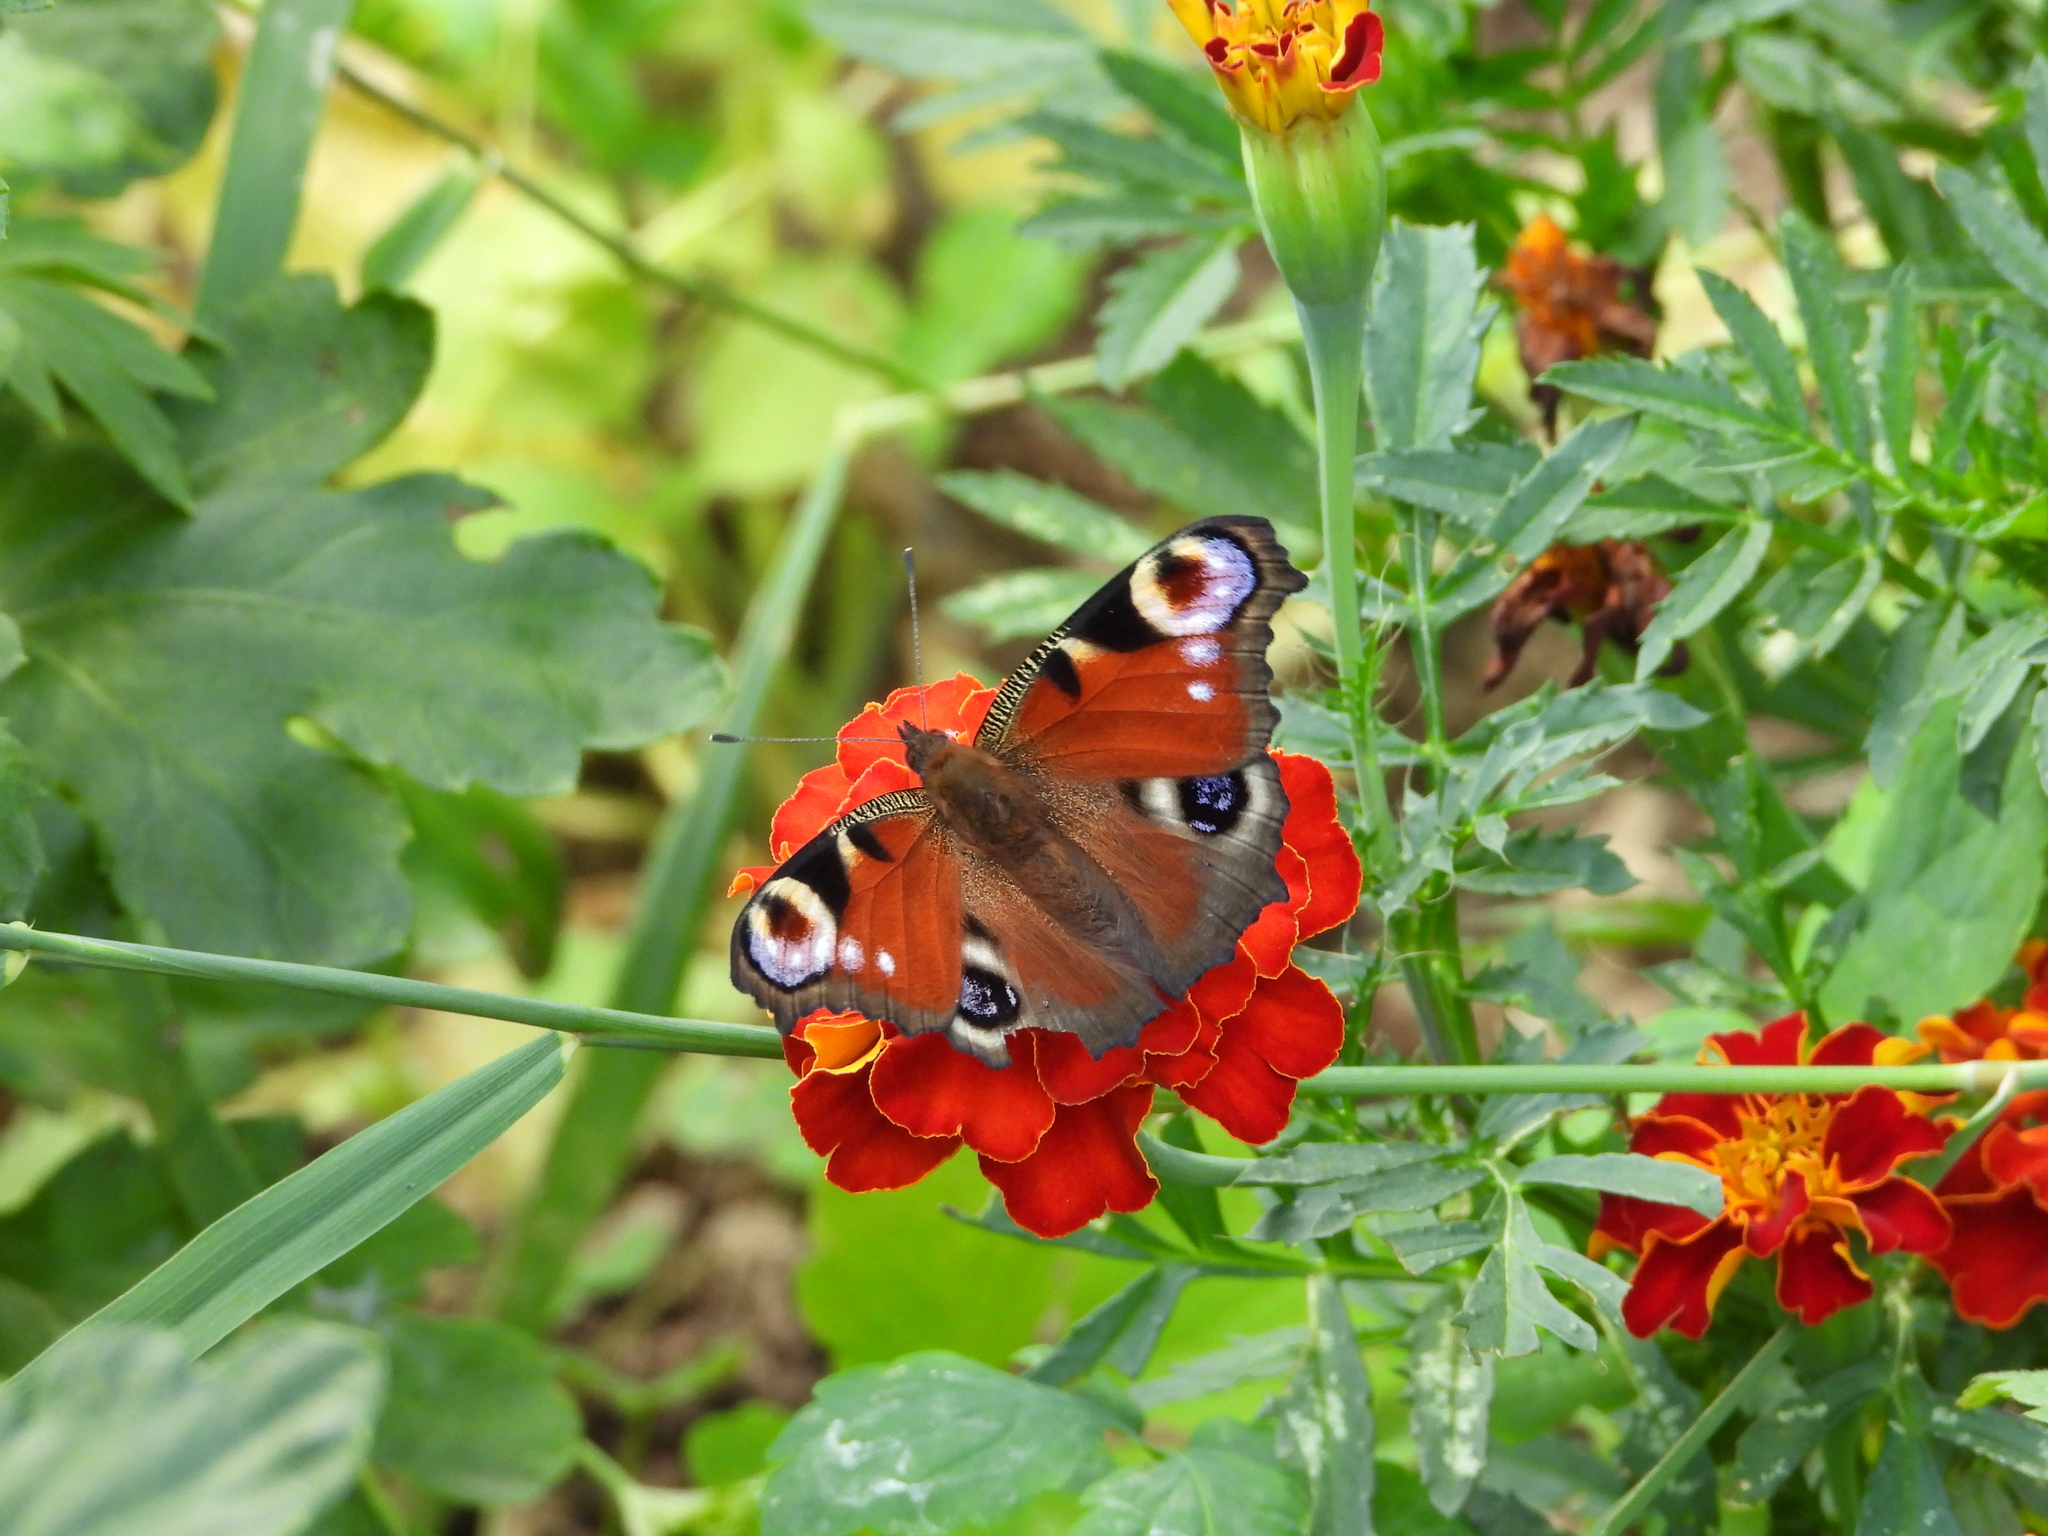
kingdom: Animalia
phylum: Arthropoda
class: Insecta
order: Lepidoptera
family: Nymphalidae
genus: Aglais
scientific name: Aglais io
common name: Peacock
